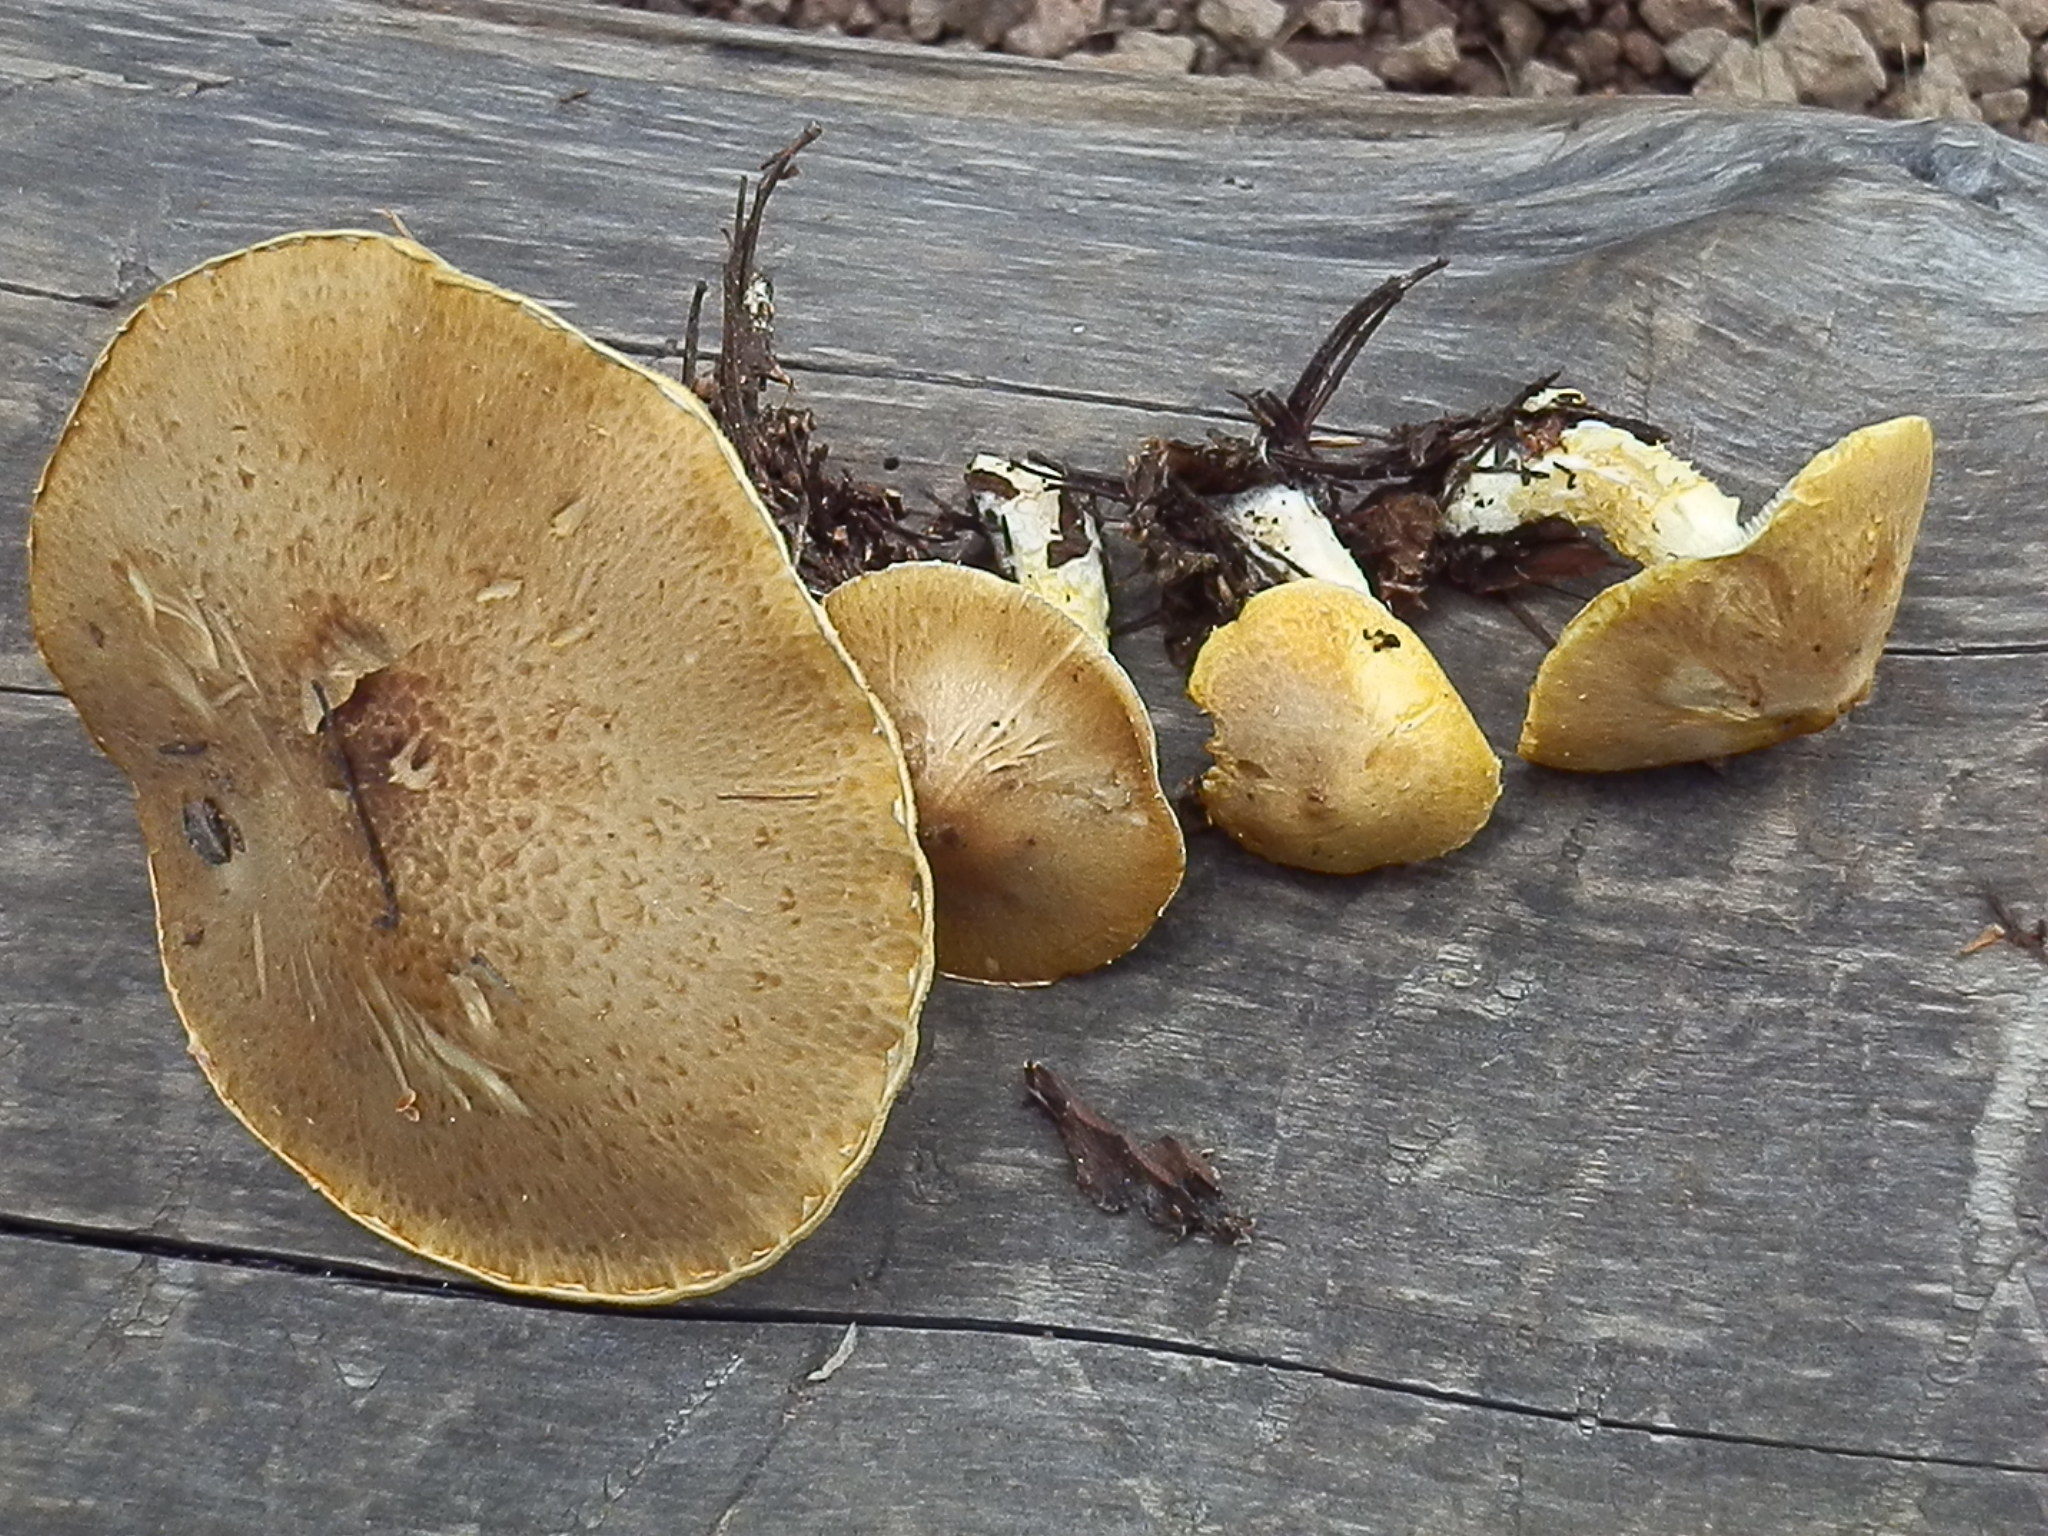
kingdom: Fungi
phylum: Basidiomycota
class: Agaricomycetes
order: Agaricales
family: Agaricaceae
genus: Floccularia
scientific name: Floccularia albolanaripes
